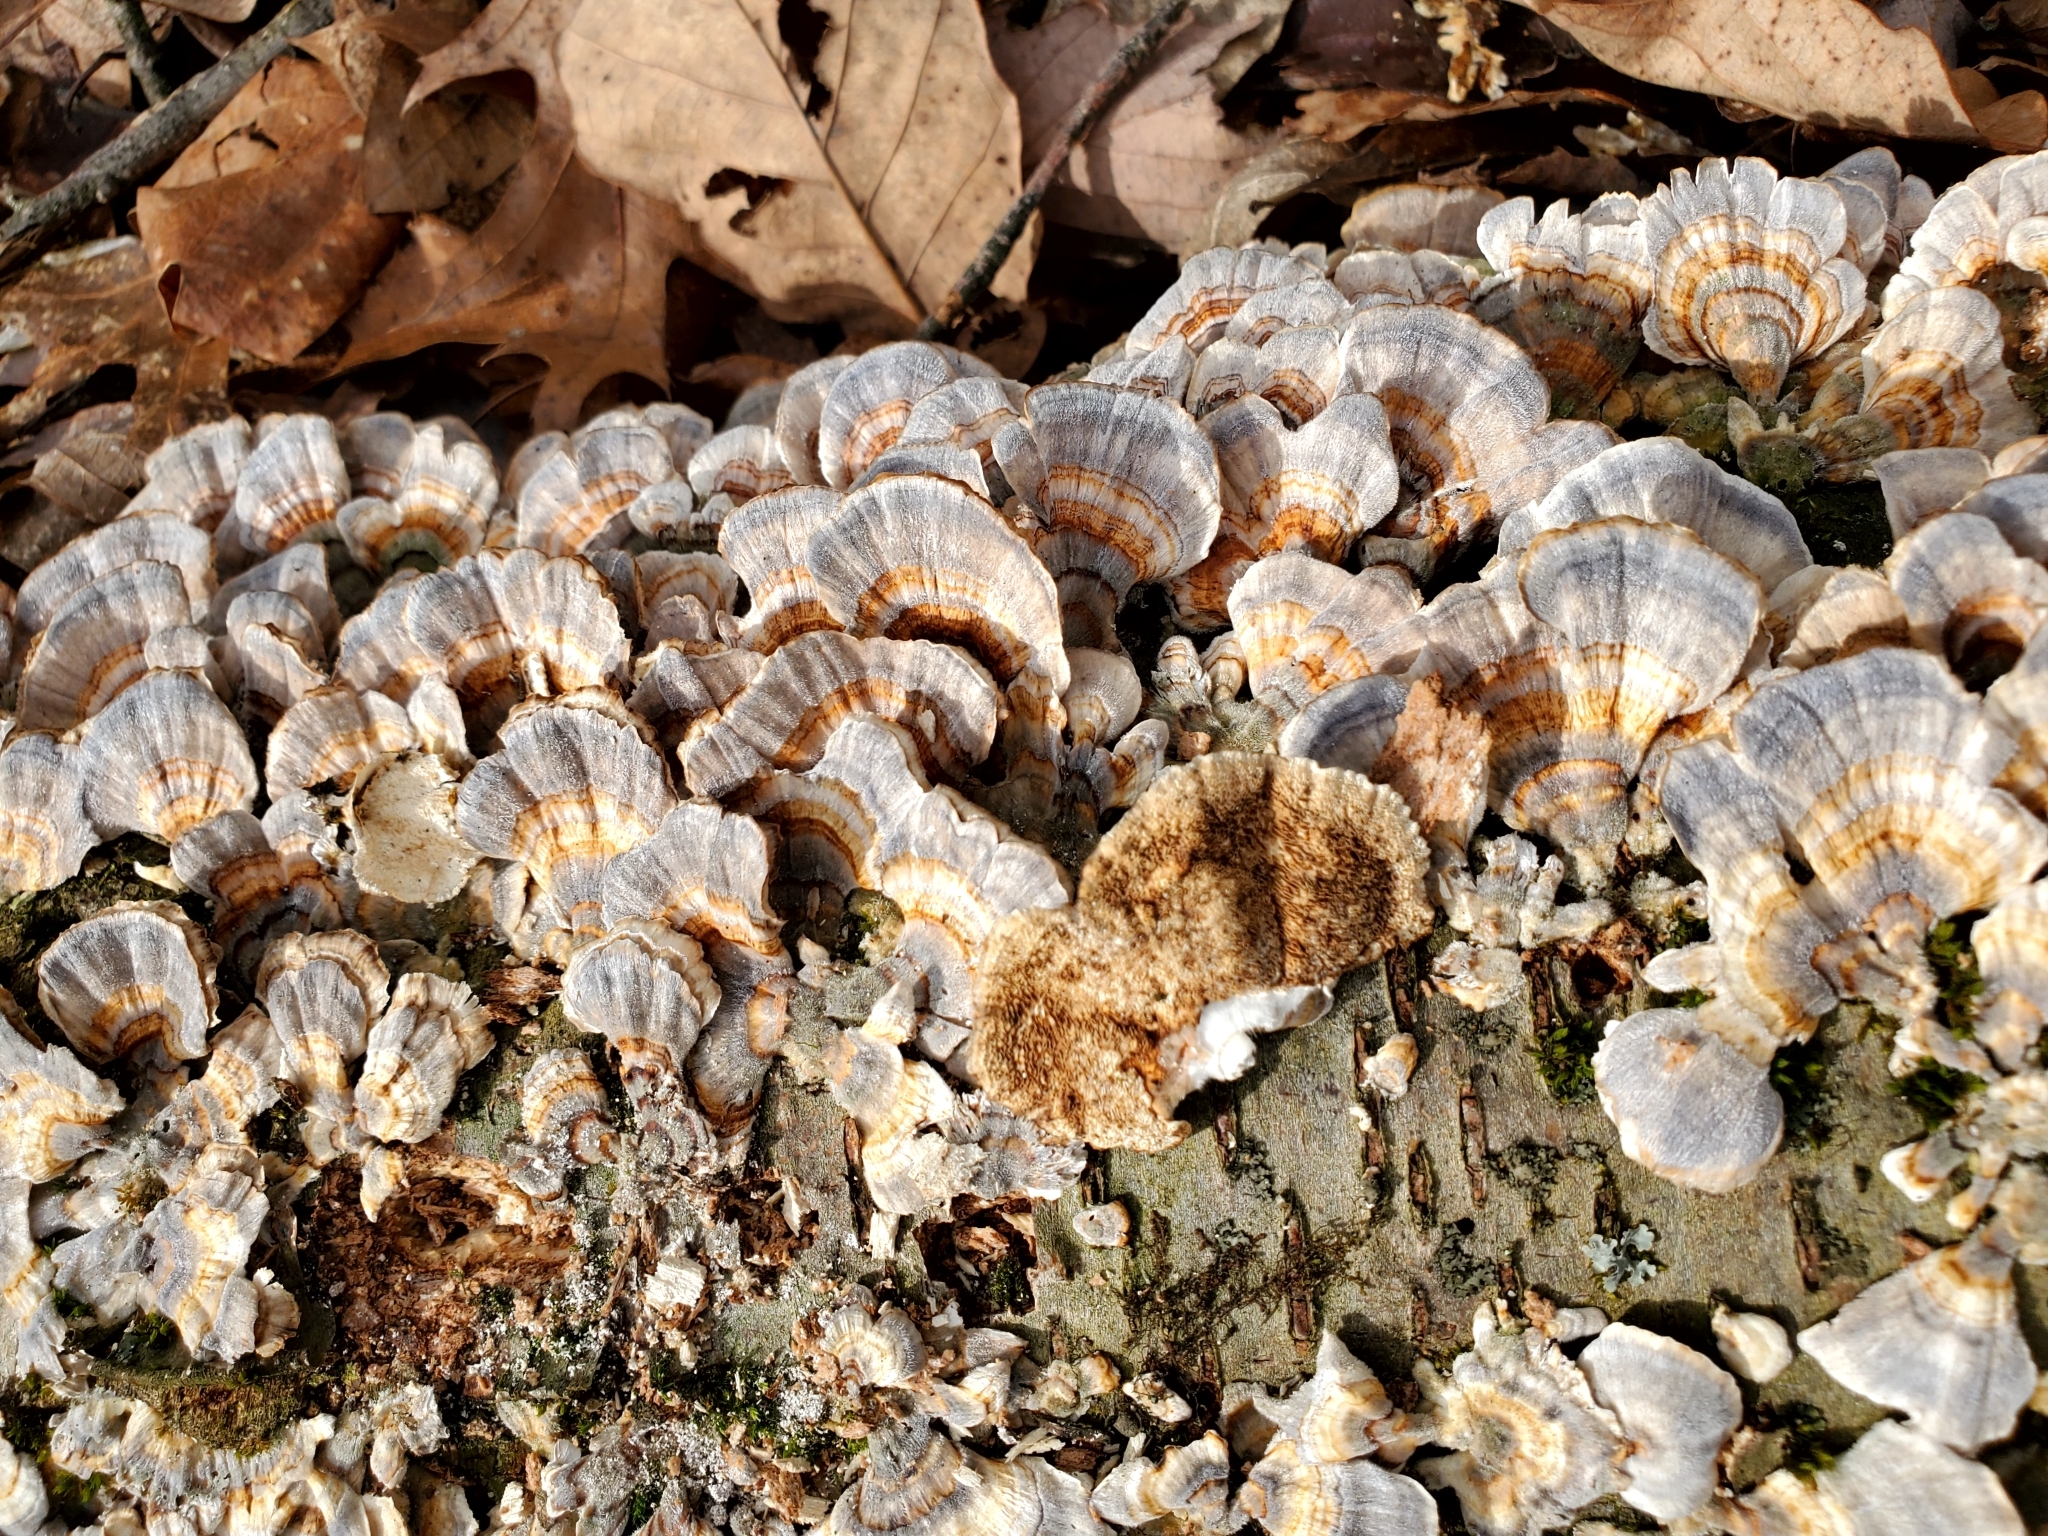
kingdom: Fungi
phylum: Basidiomycota
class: Agaricomycetes
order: Polyporales
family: Polyporaceae
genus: Trametes
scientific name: Trametes versicolor
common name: Turkeytail
